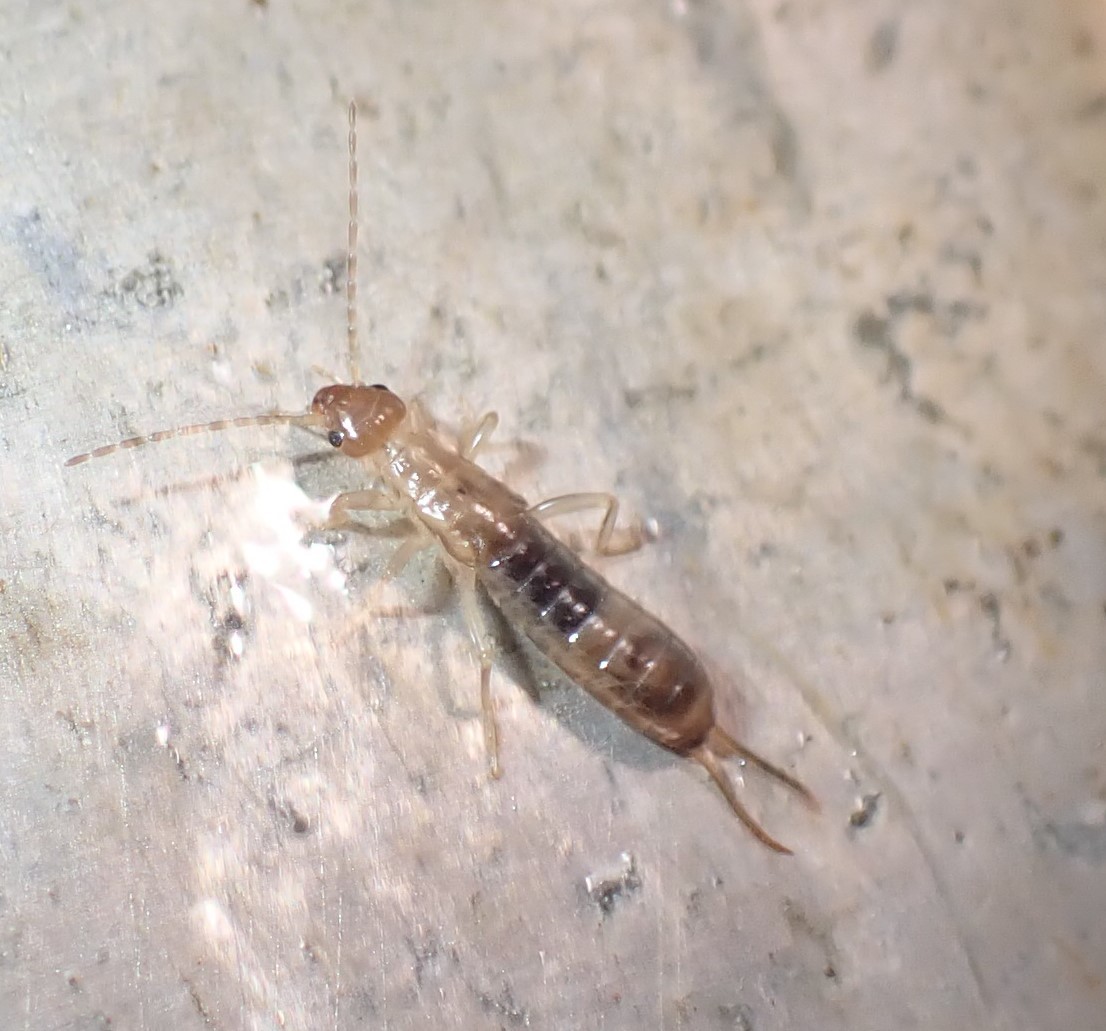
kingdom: Animalia
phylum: Arthropoda
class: Insecta
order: Dermaptera
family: Forficulidae
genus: Forficula
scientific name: Forficula
